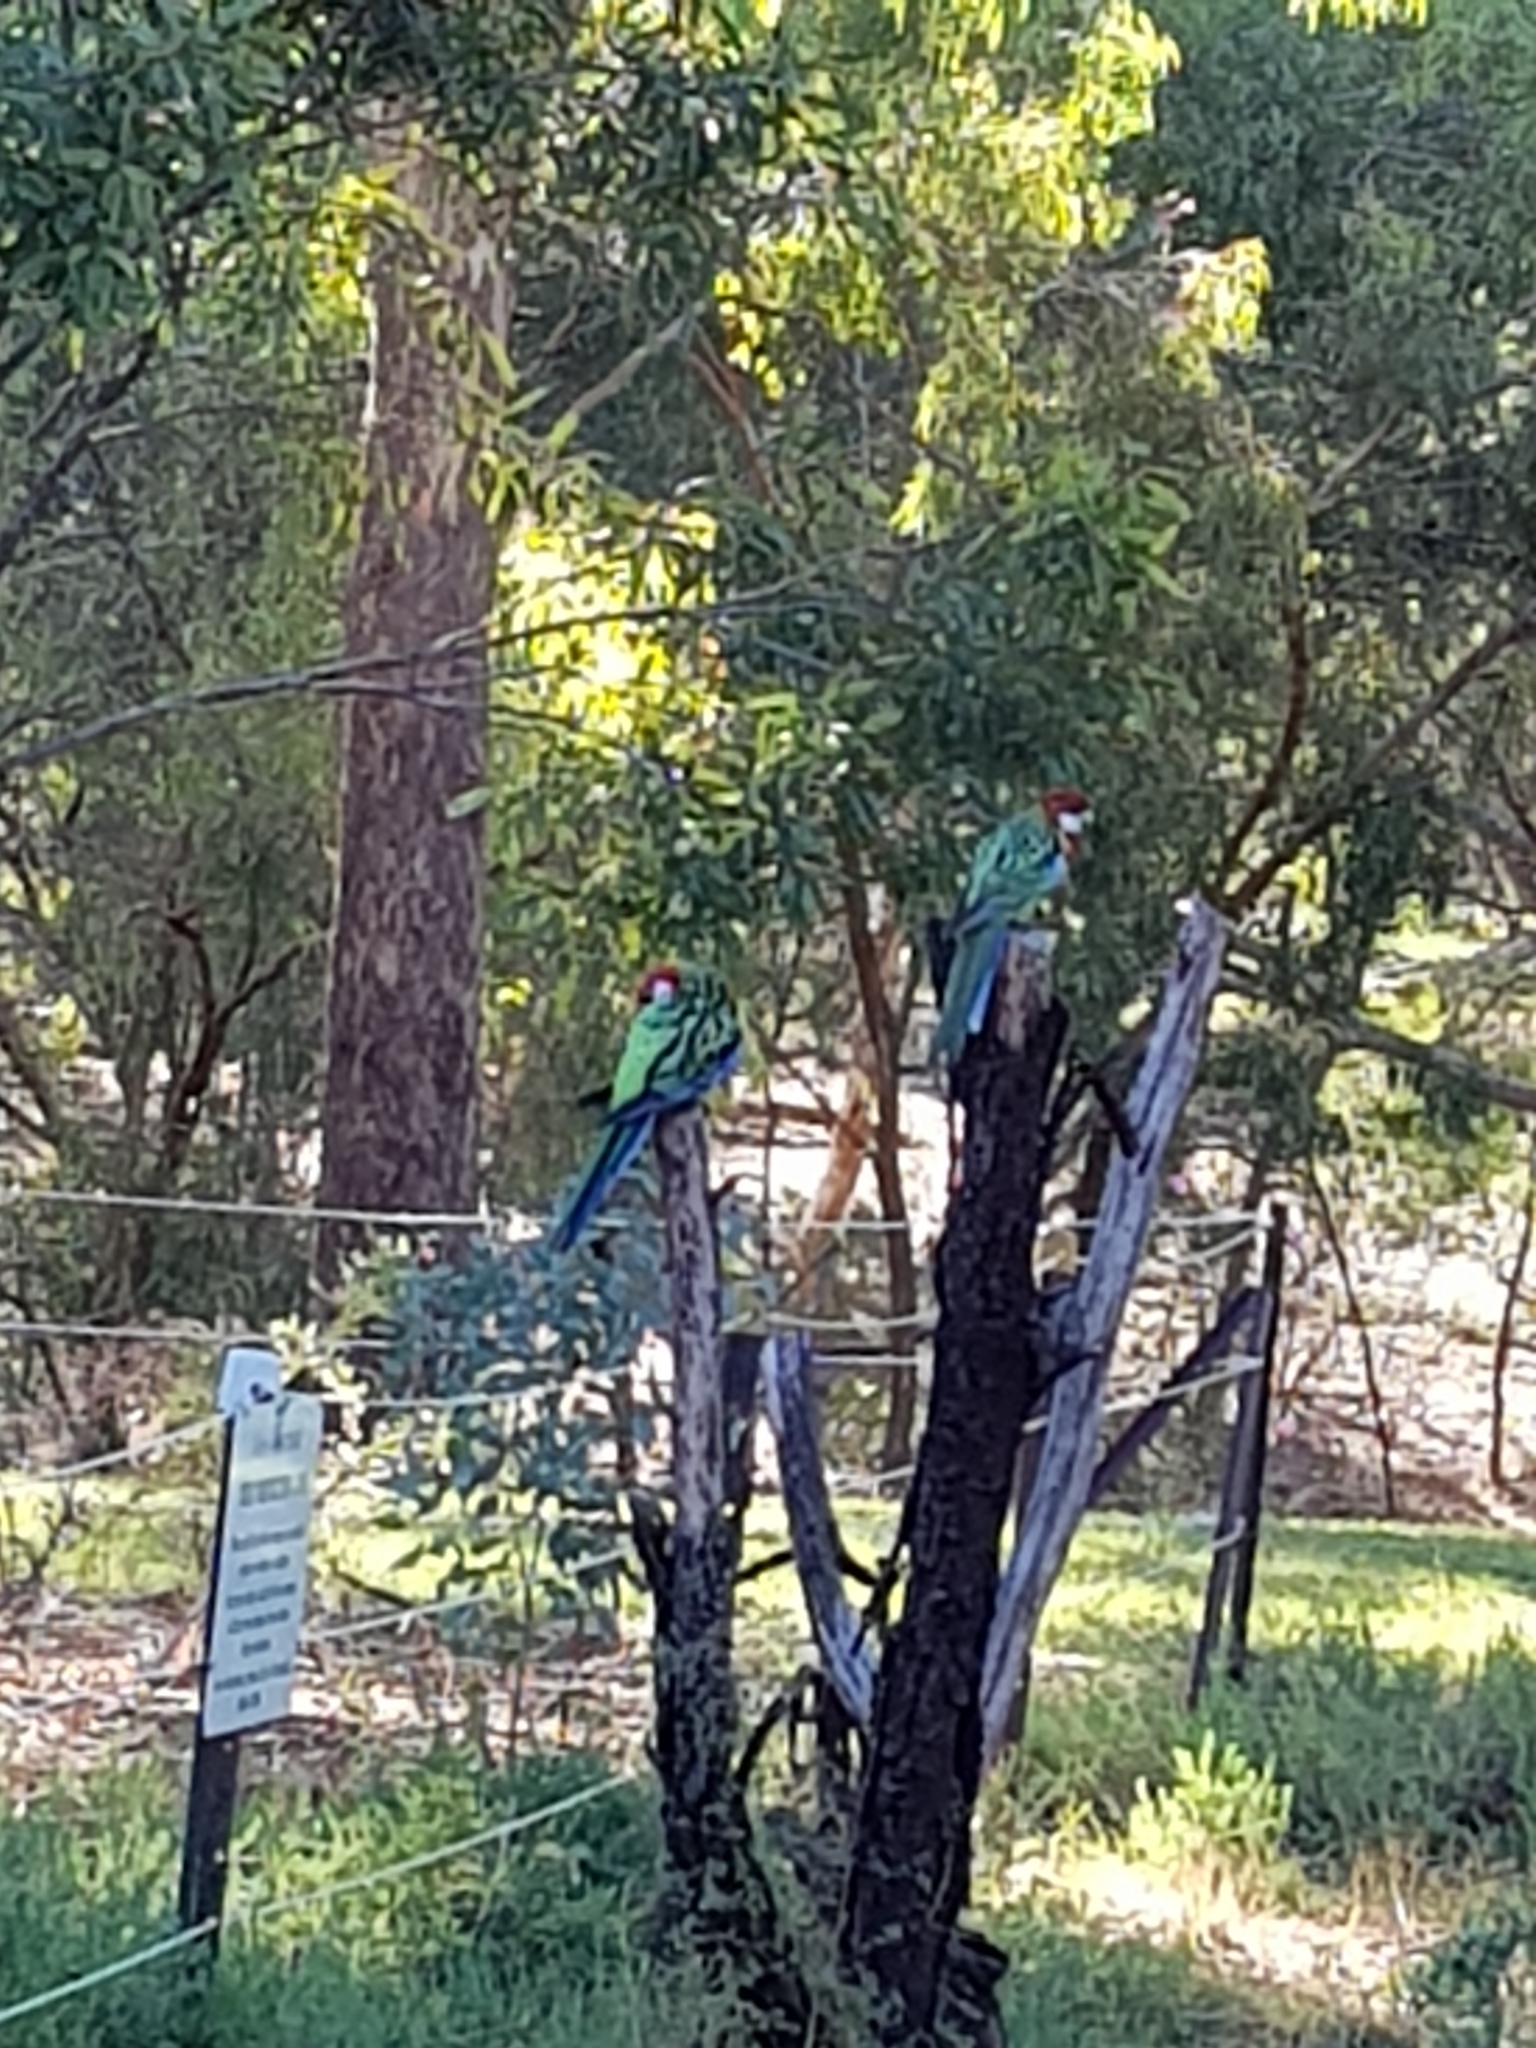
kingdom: Animalia
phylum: Chordata
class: Aves
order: Psittaciformes
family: Psittacidae
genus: Platycercus
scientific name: Platycercus eximius
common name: Eastern rosella
